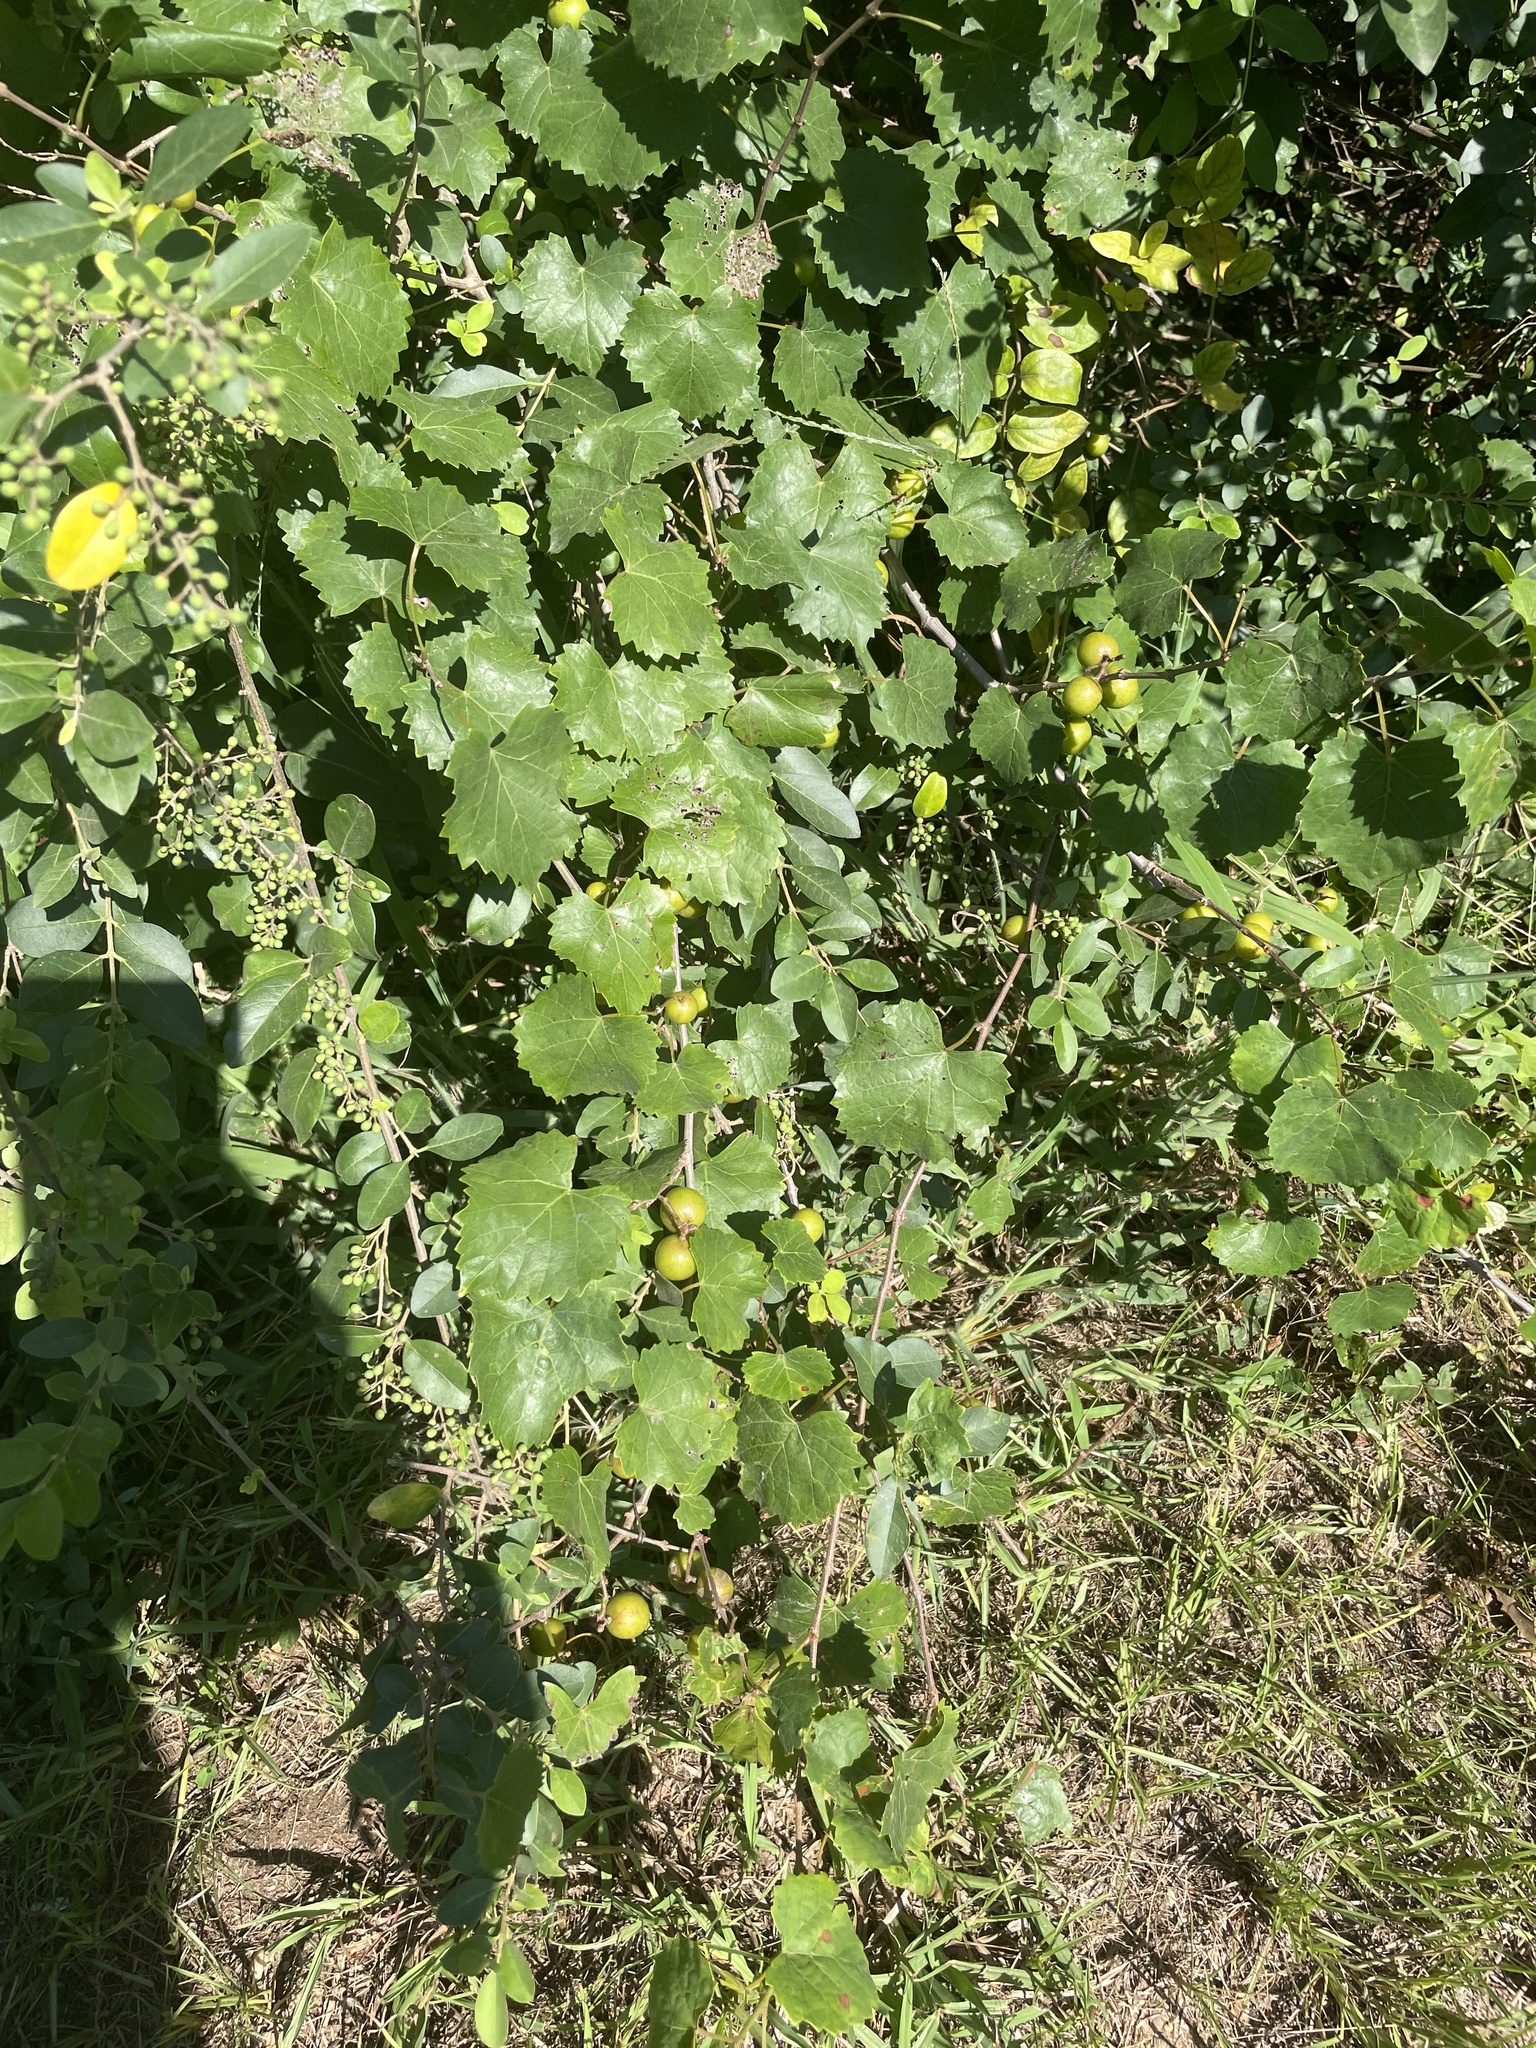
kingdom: Plantae
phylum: Tracheophyta
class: Magnoliopsida
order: Vitales
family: Vitaceae
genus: Vitis
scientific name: Vitis rotundifolia
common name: Muscadine grape
